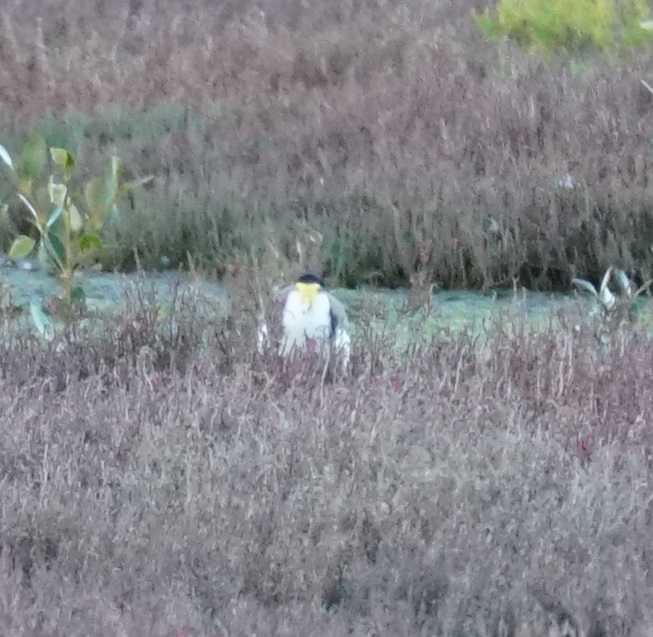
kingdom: Animalia
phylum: Chordata
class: Aves
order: Charadriiformes
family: Charadriidae
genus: Vanellus
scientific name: Vanellus miles
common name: Masked lapwing
